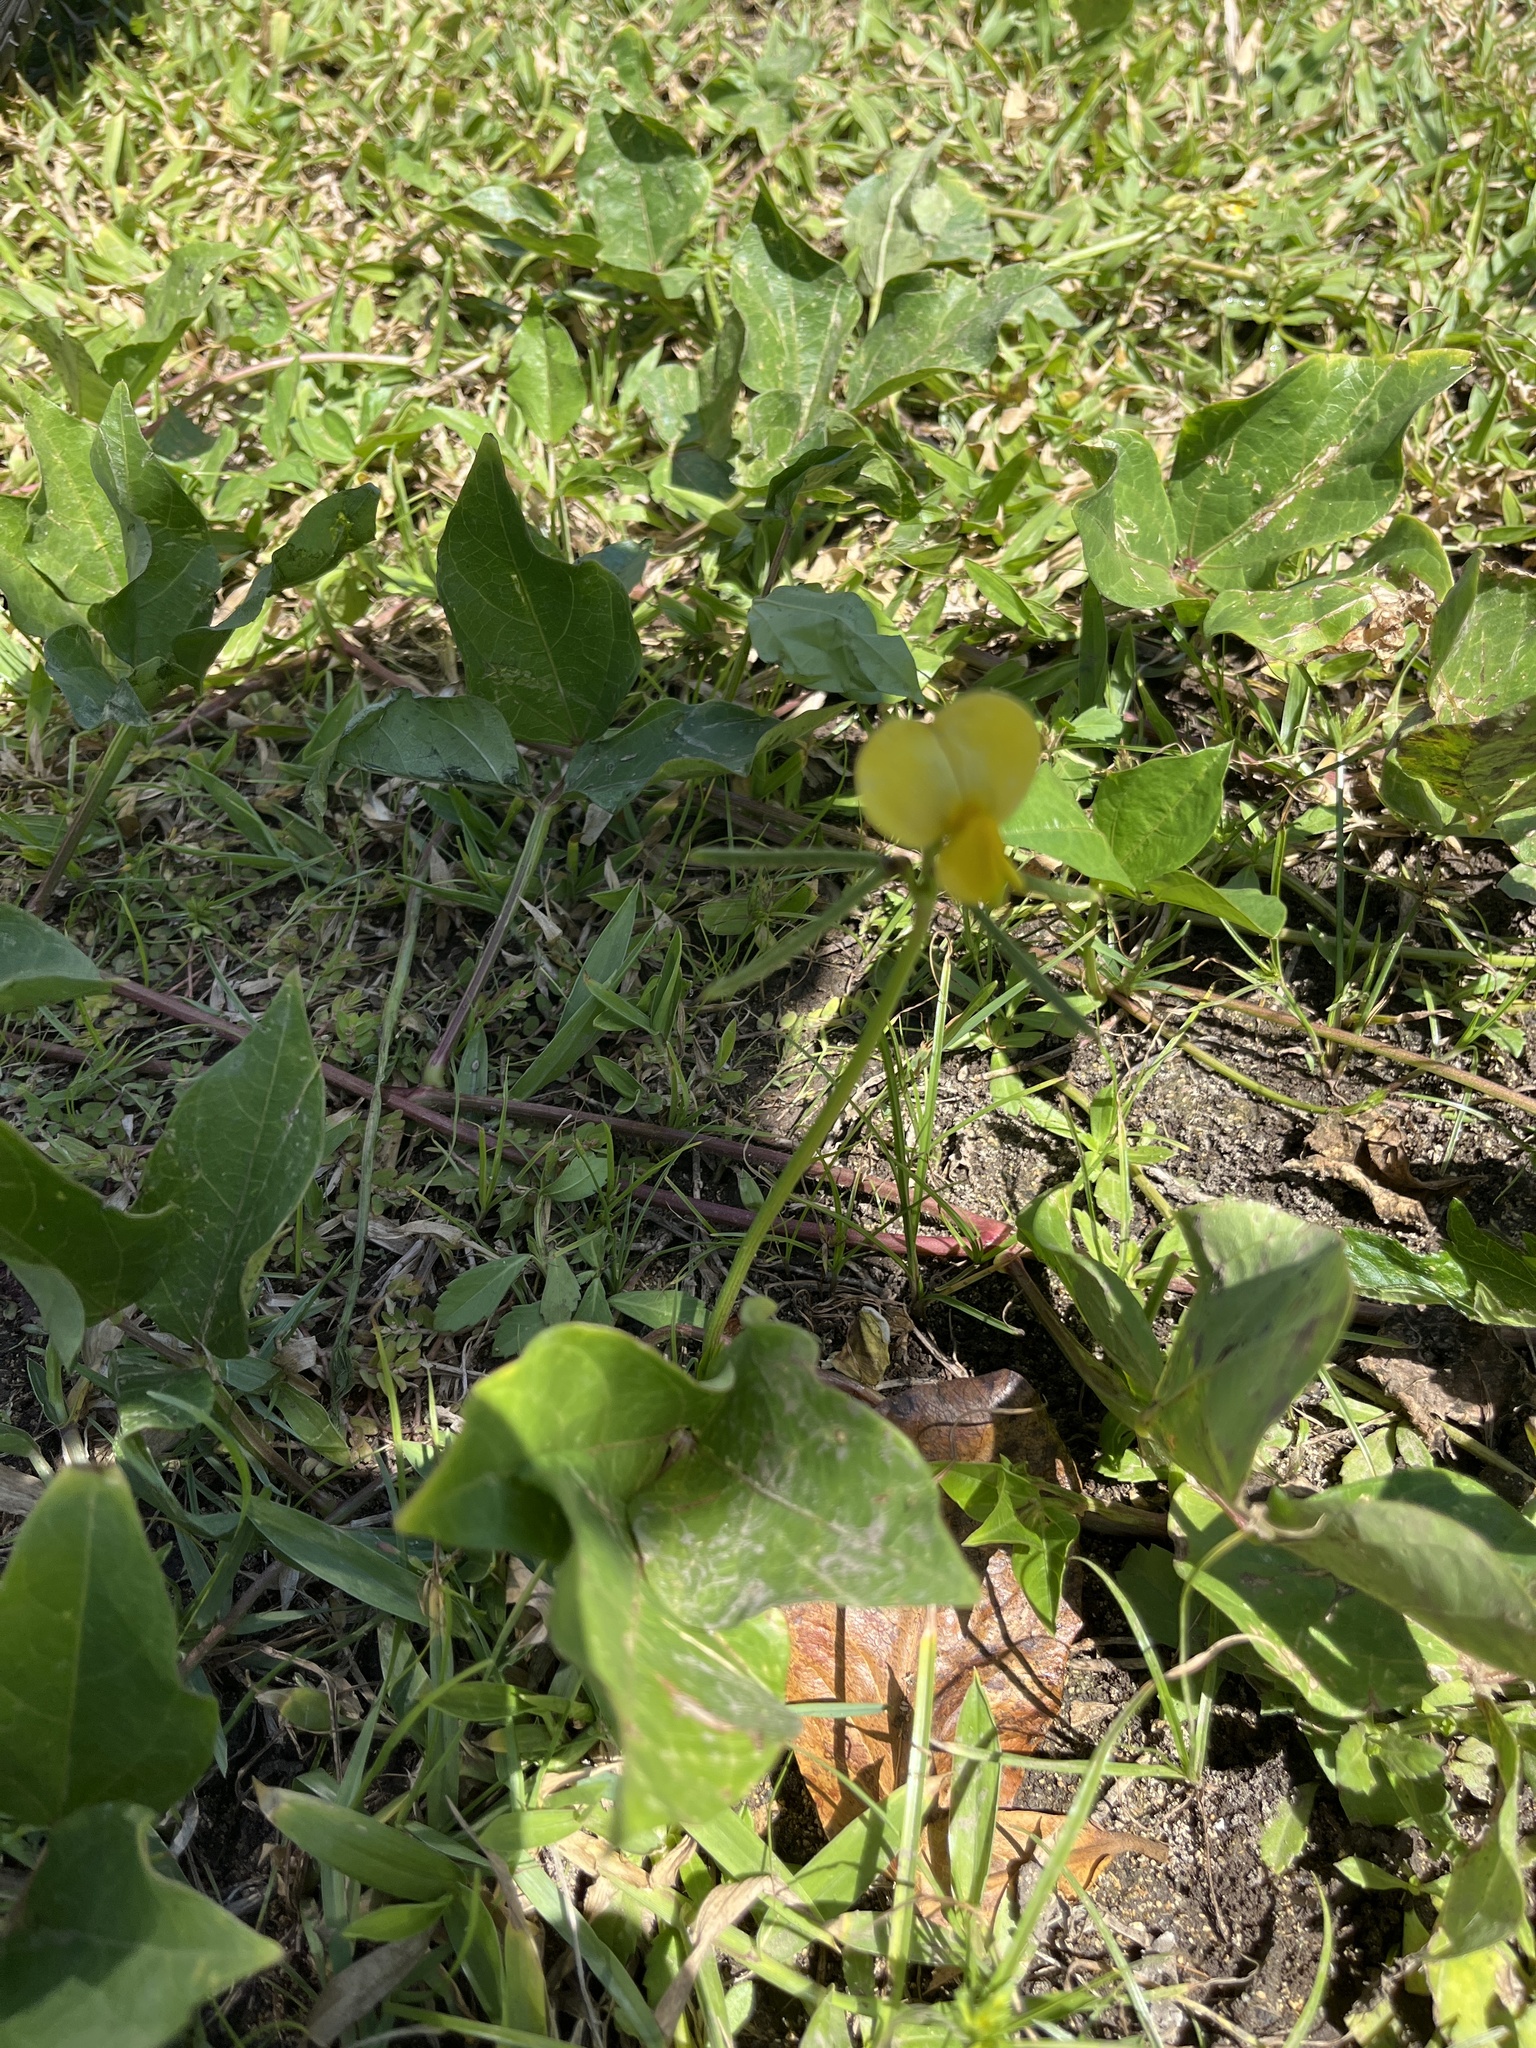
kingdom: Plantae
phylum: Tracheophyta
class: Magnoliopsida
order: Fabales
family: Fabaceae
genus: Vigna
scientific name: Vigna luteola
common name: Hairypod cowpea
